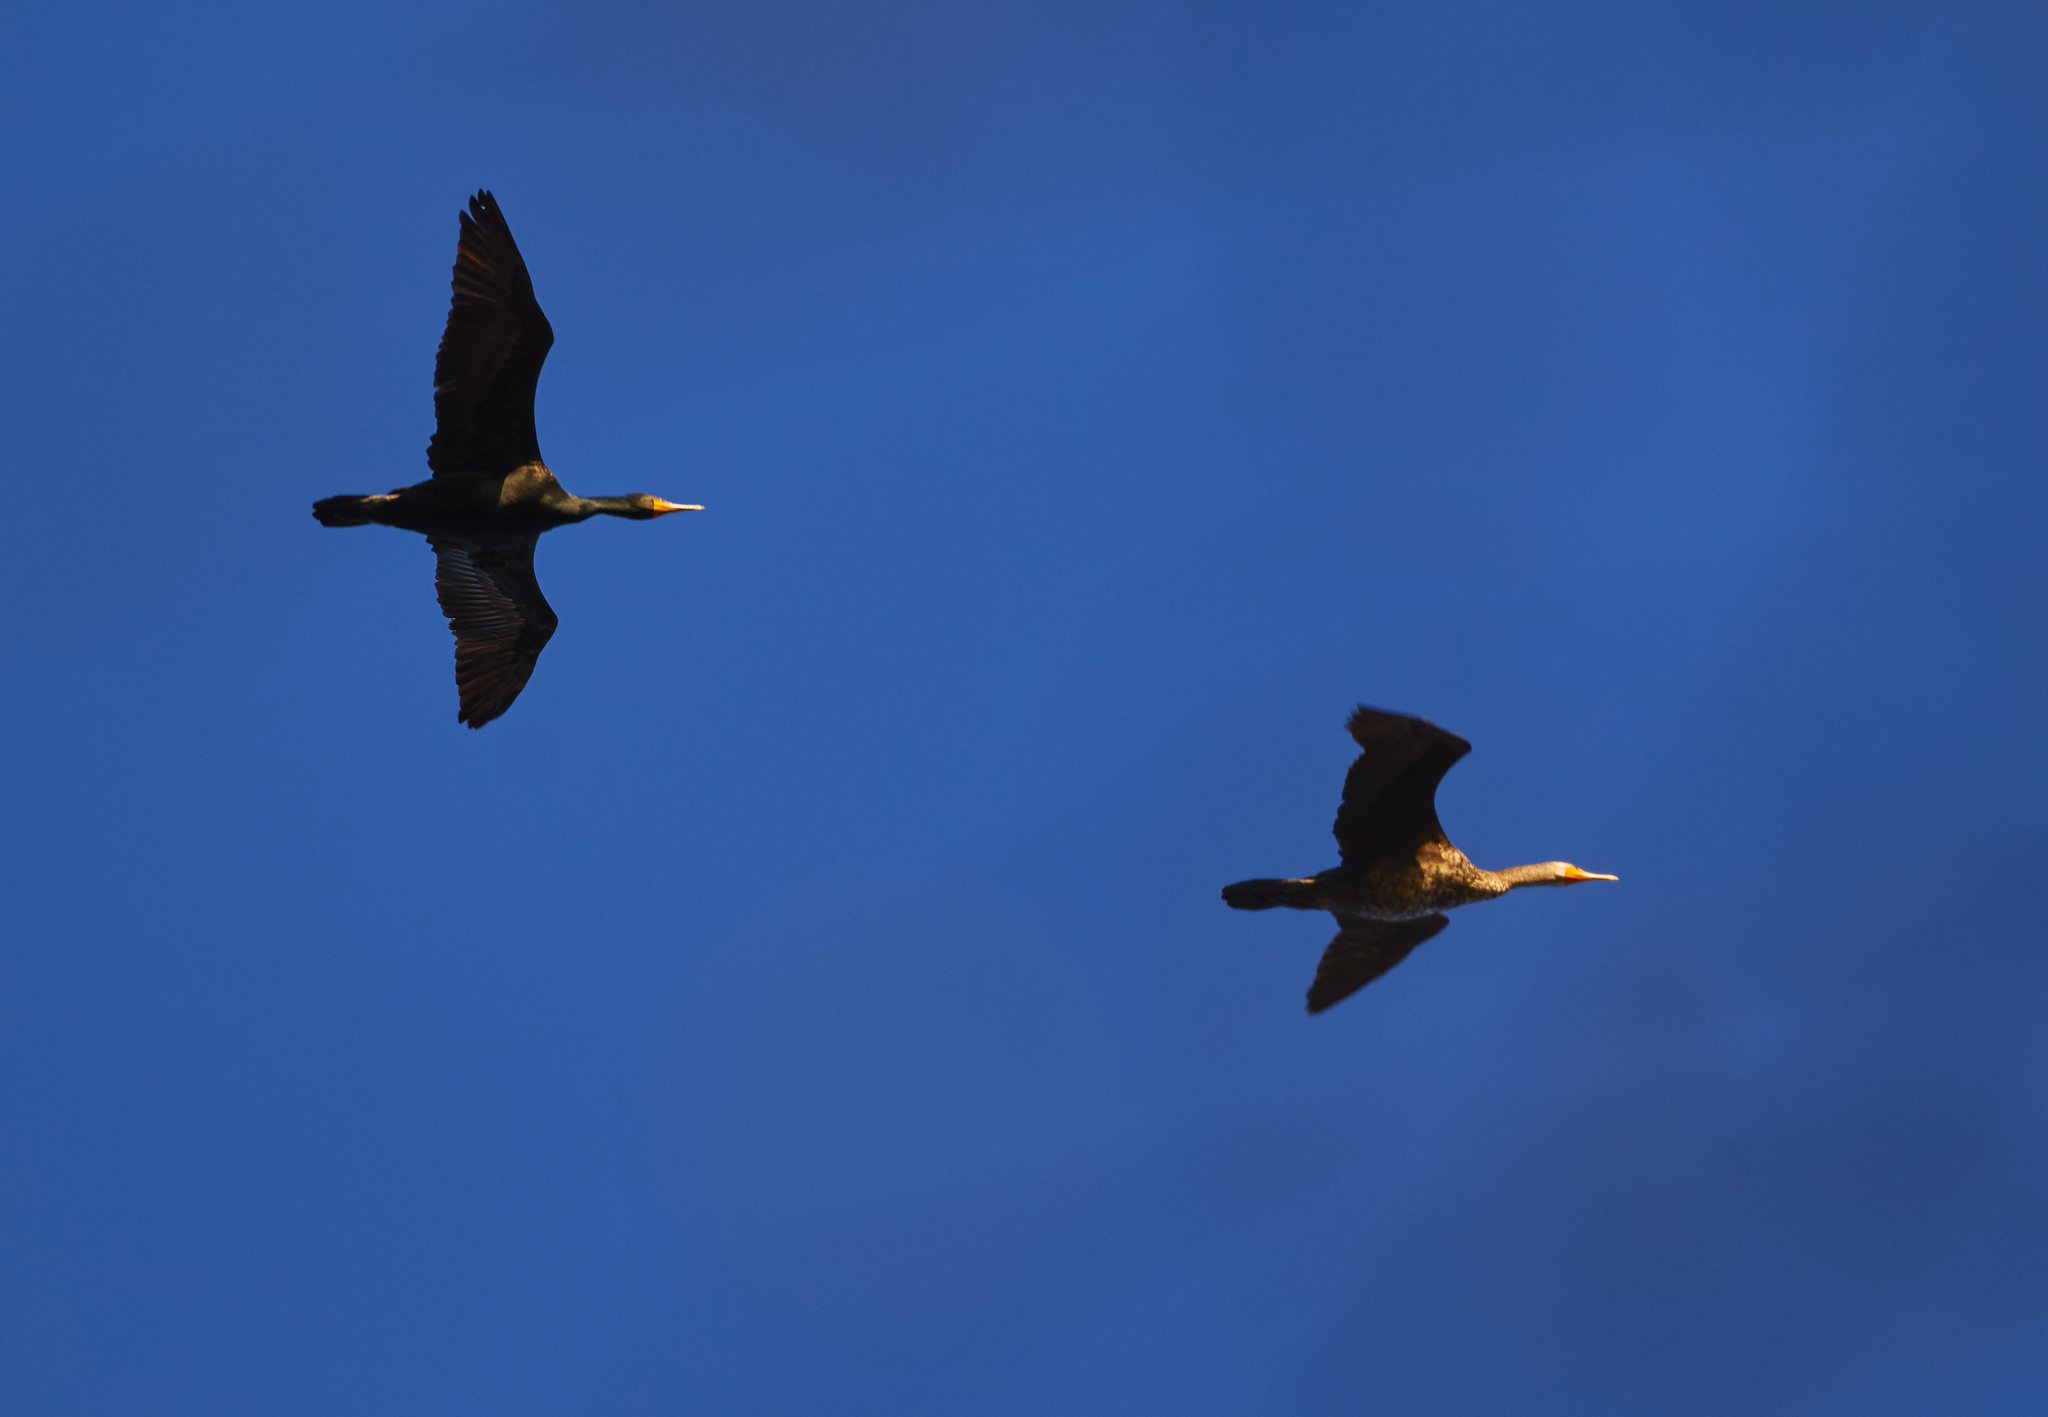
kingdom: Animalia
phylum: Chordata
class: Aves
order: Suliformes
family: Phalacrocoracidae
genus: Phalacrocorax
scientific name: Phalacrocorax auritus
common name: Double-crested cormorant
